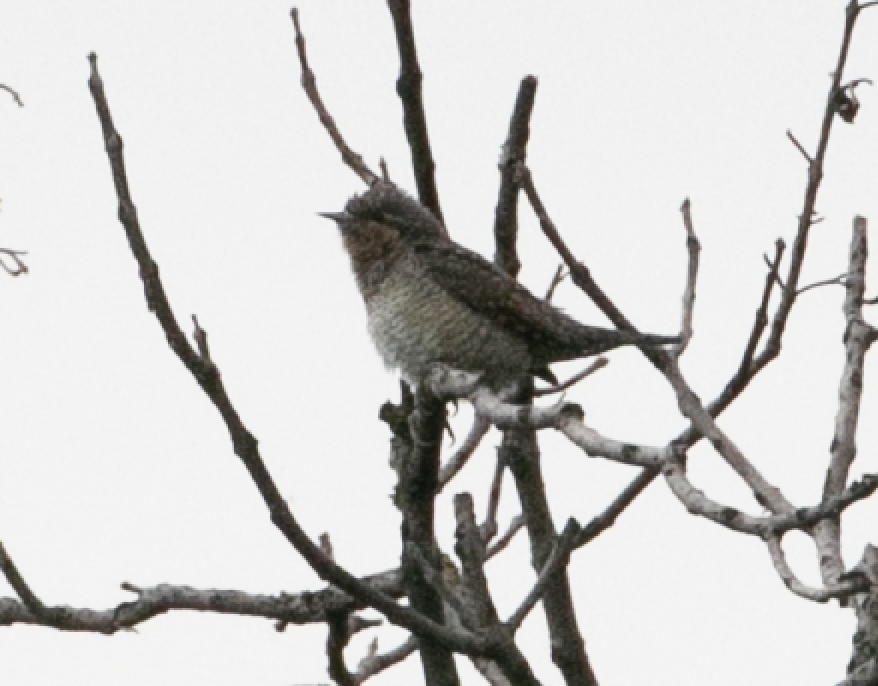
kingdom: Animalia
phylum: Chordata
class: Aves
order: Piciformes
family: Picidae
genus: Jynx
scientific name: Jynx torquilla
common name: Eurasian wryneck
